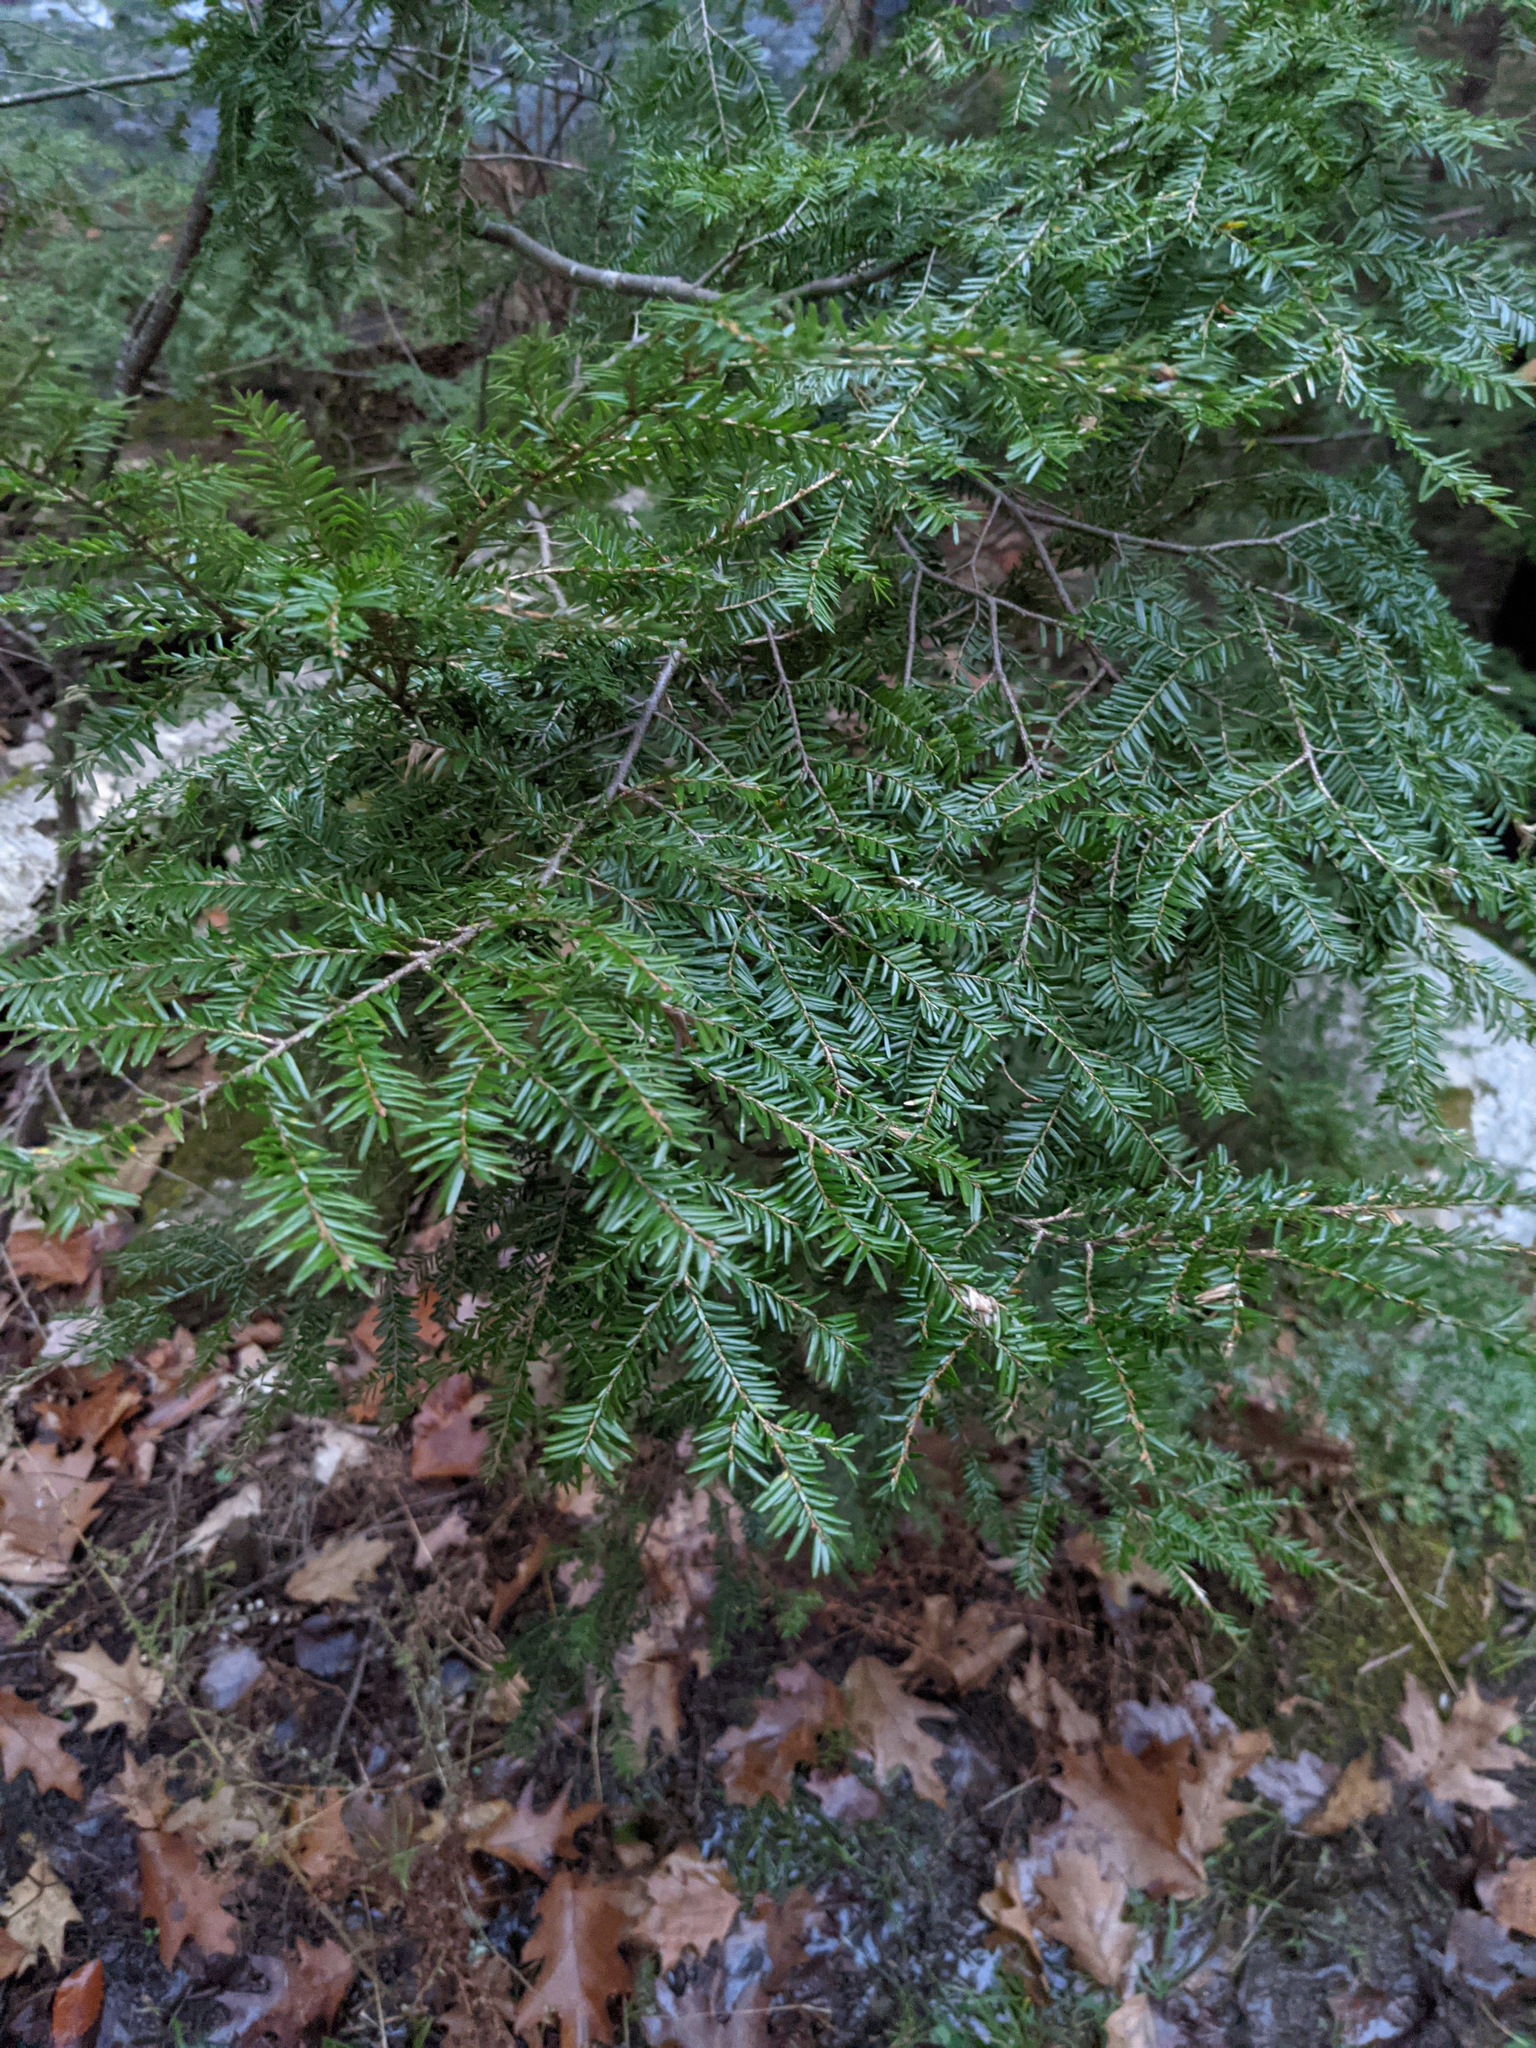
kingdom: Plantae
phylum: Tracheophyta
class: Pinopsida
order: Pinales
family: Pinaceae
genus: Tsuga
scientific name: Tsuga canadensis
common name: Eastern hemlock
